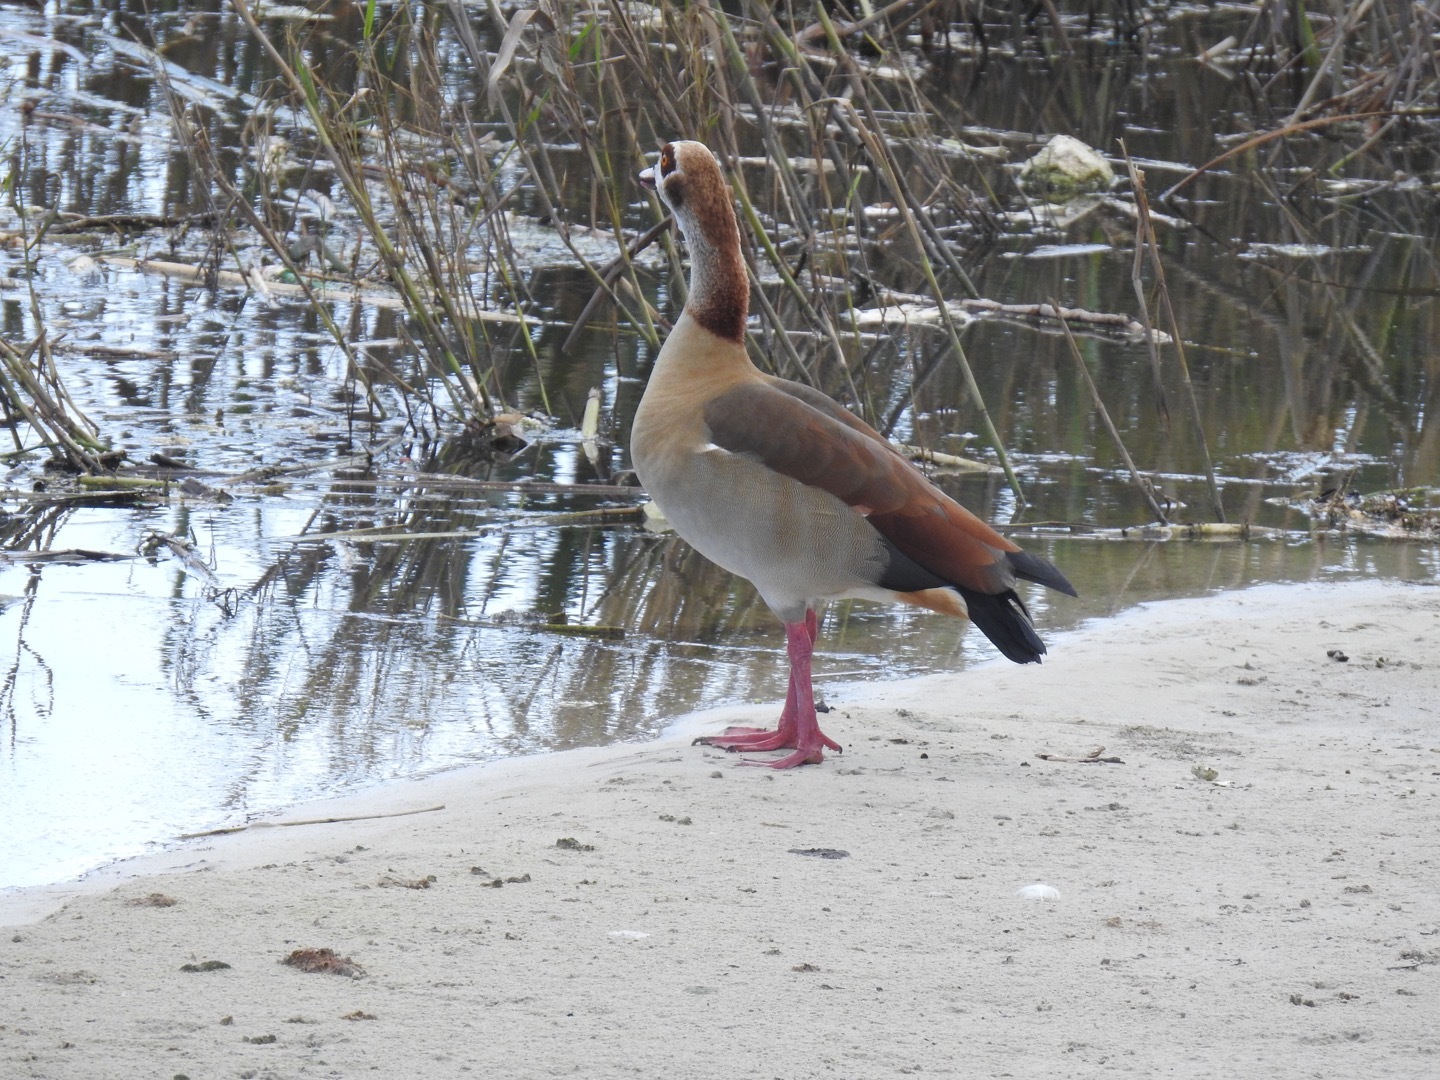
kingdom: Animalia
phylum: Chordata
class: Aves
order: Anseriformes
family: Anatidae
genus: Alopochen
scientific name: Alopochen aegyptiaca
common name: Egyptian goose
